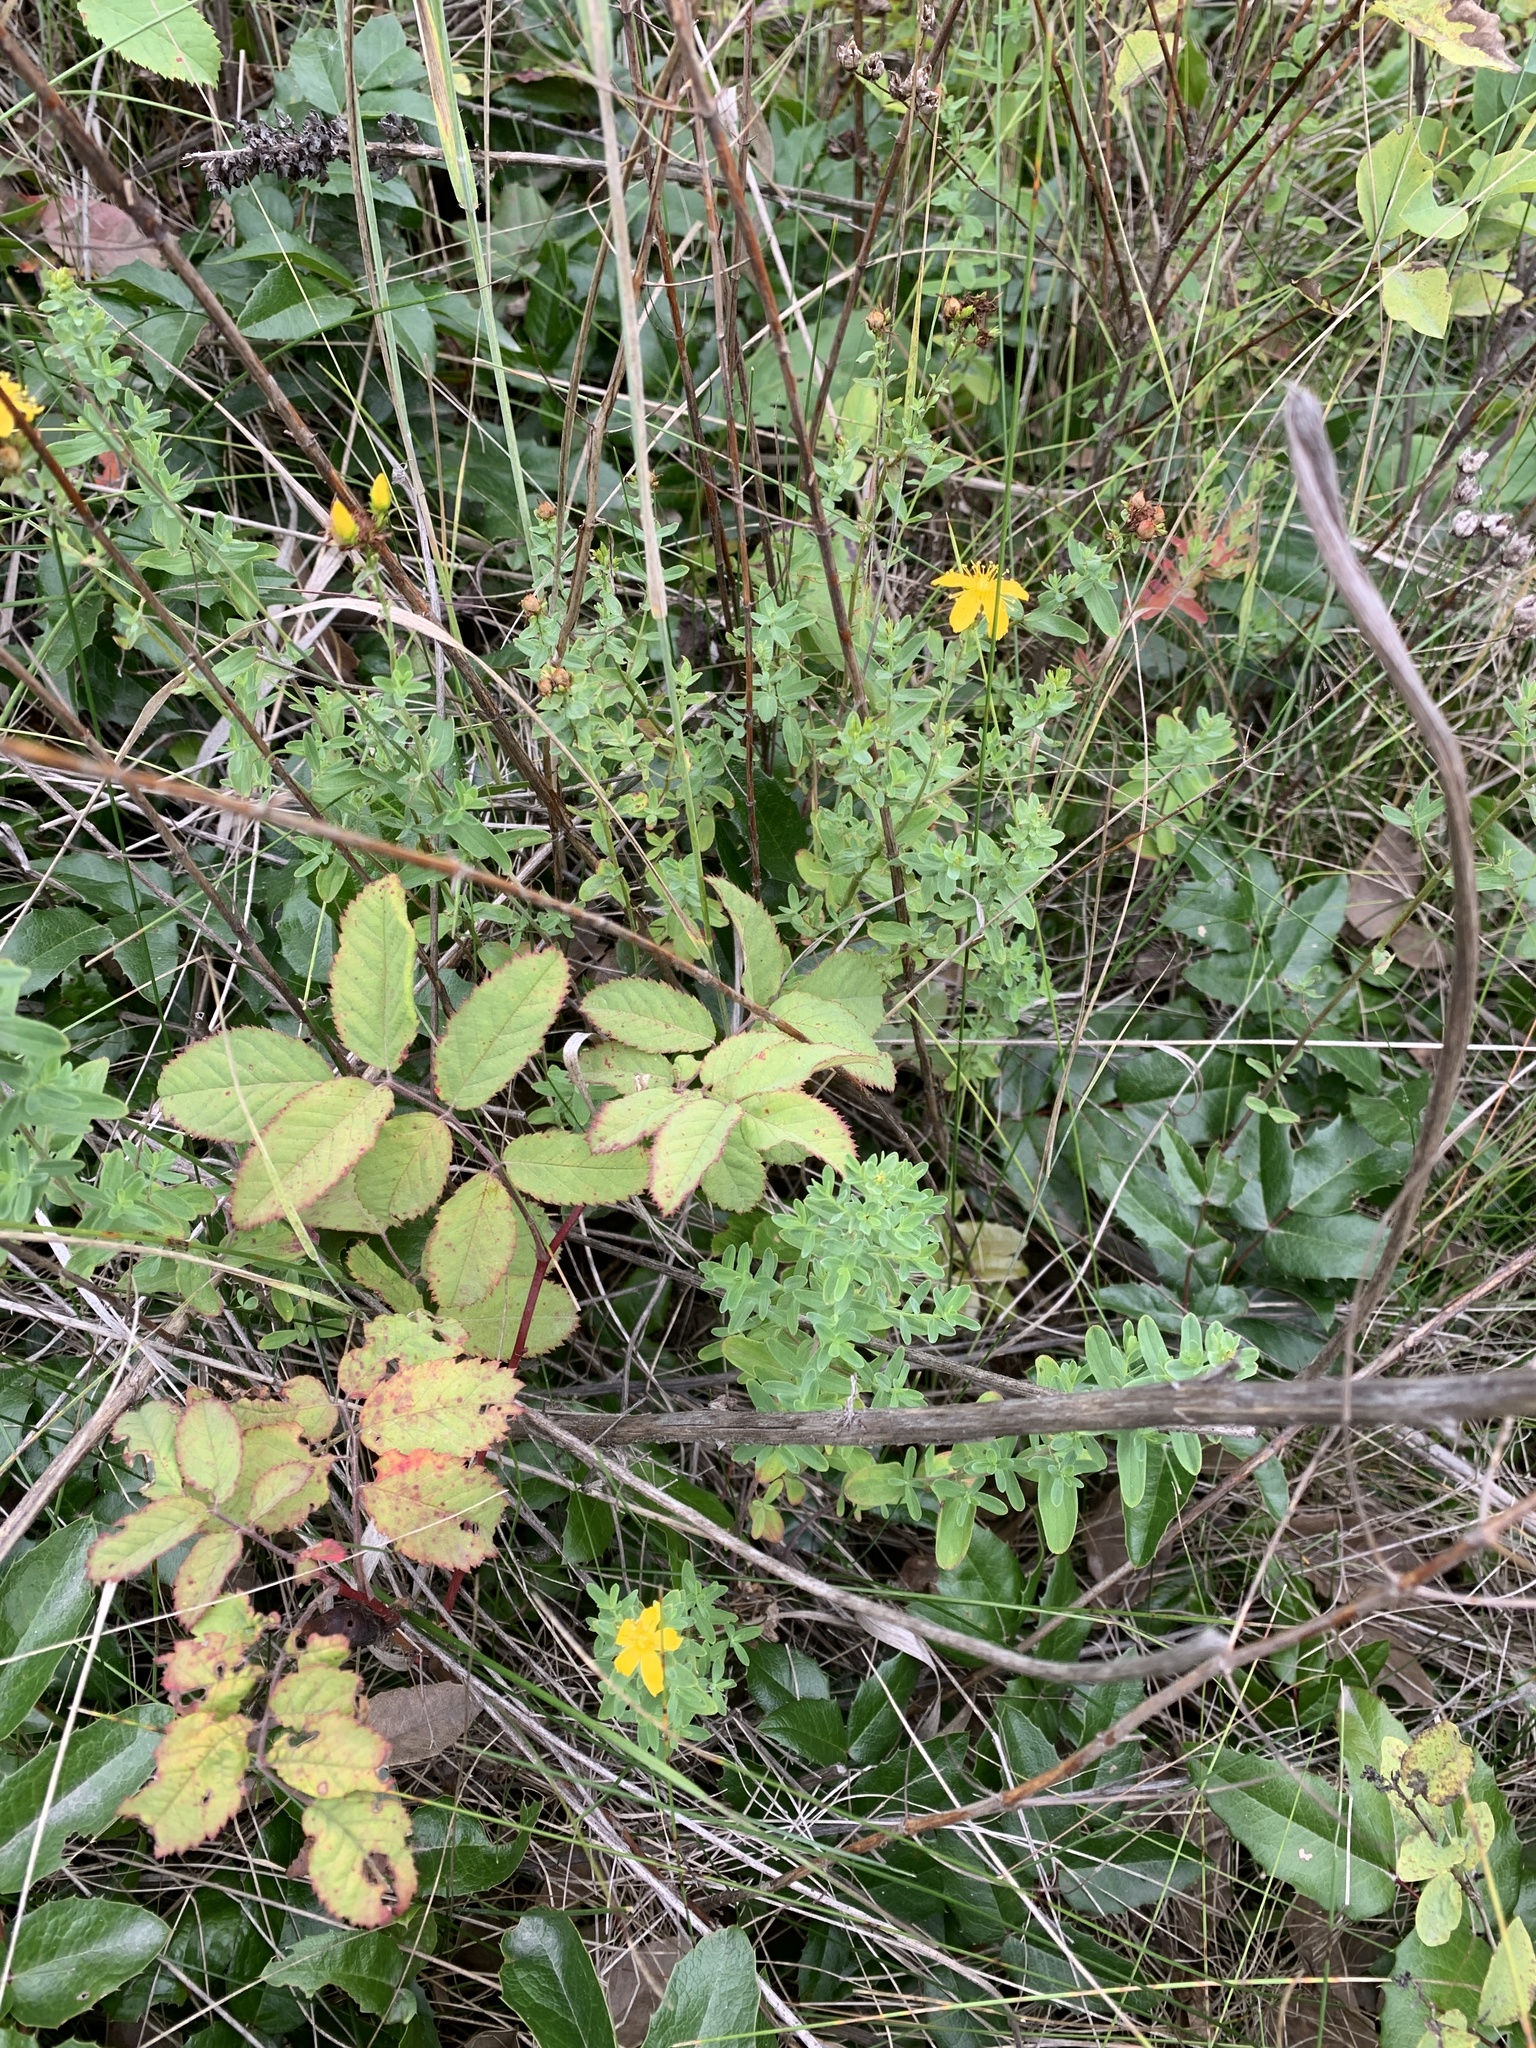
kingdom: Plantae
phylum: Tracheophyta
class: Magnoliopsida
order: Malpighiales
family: Hypericaceae
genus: Hypericum
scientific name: Hypericum perforatum
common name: Common st. johnswort
